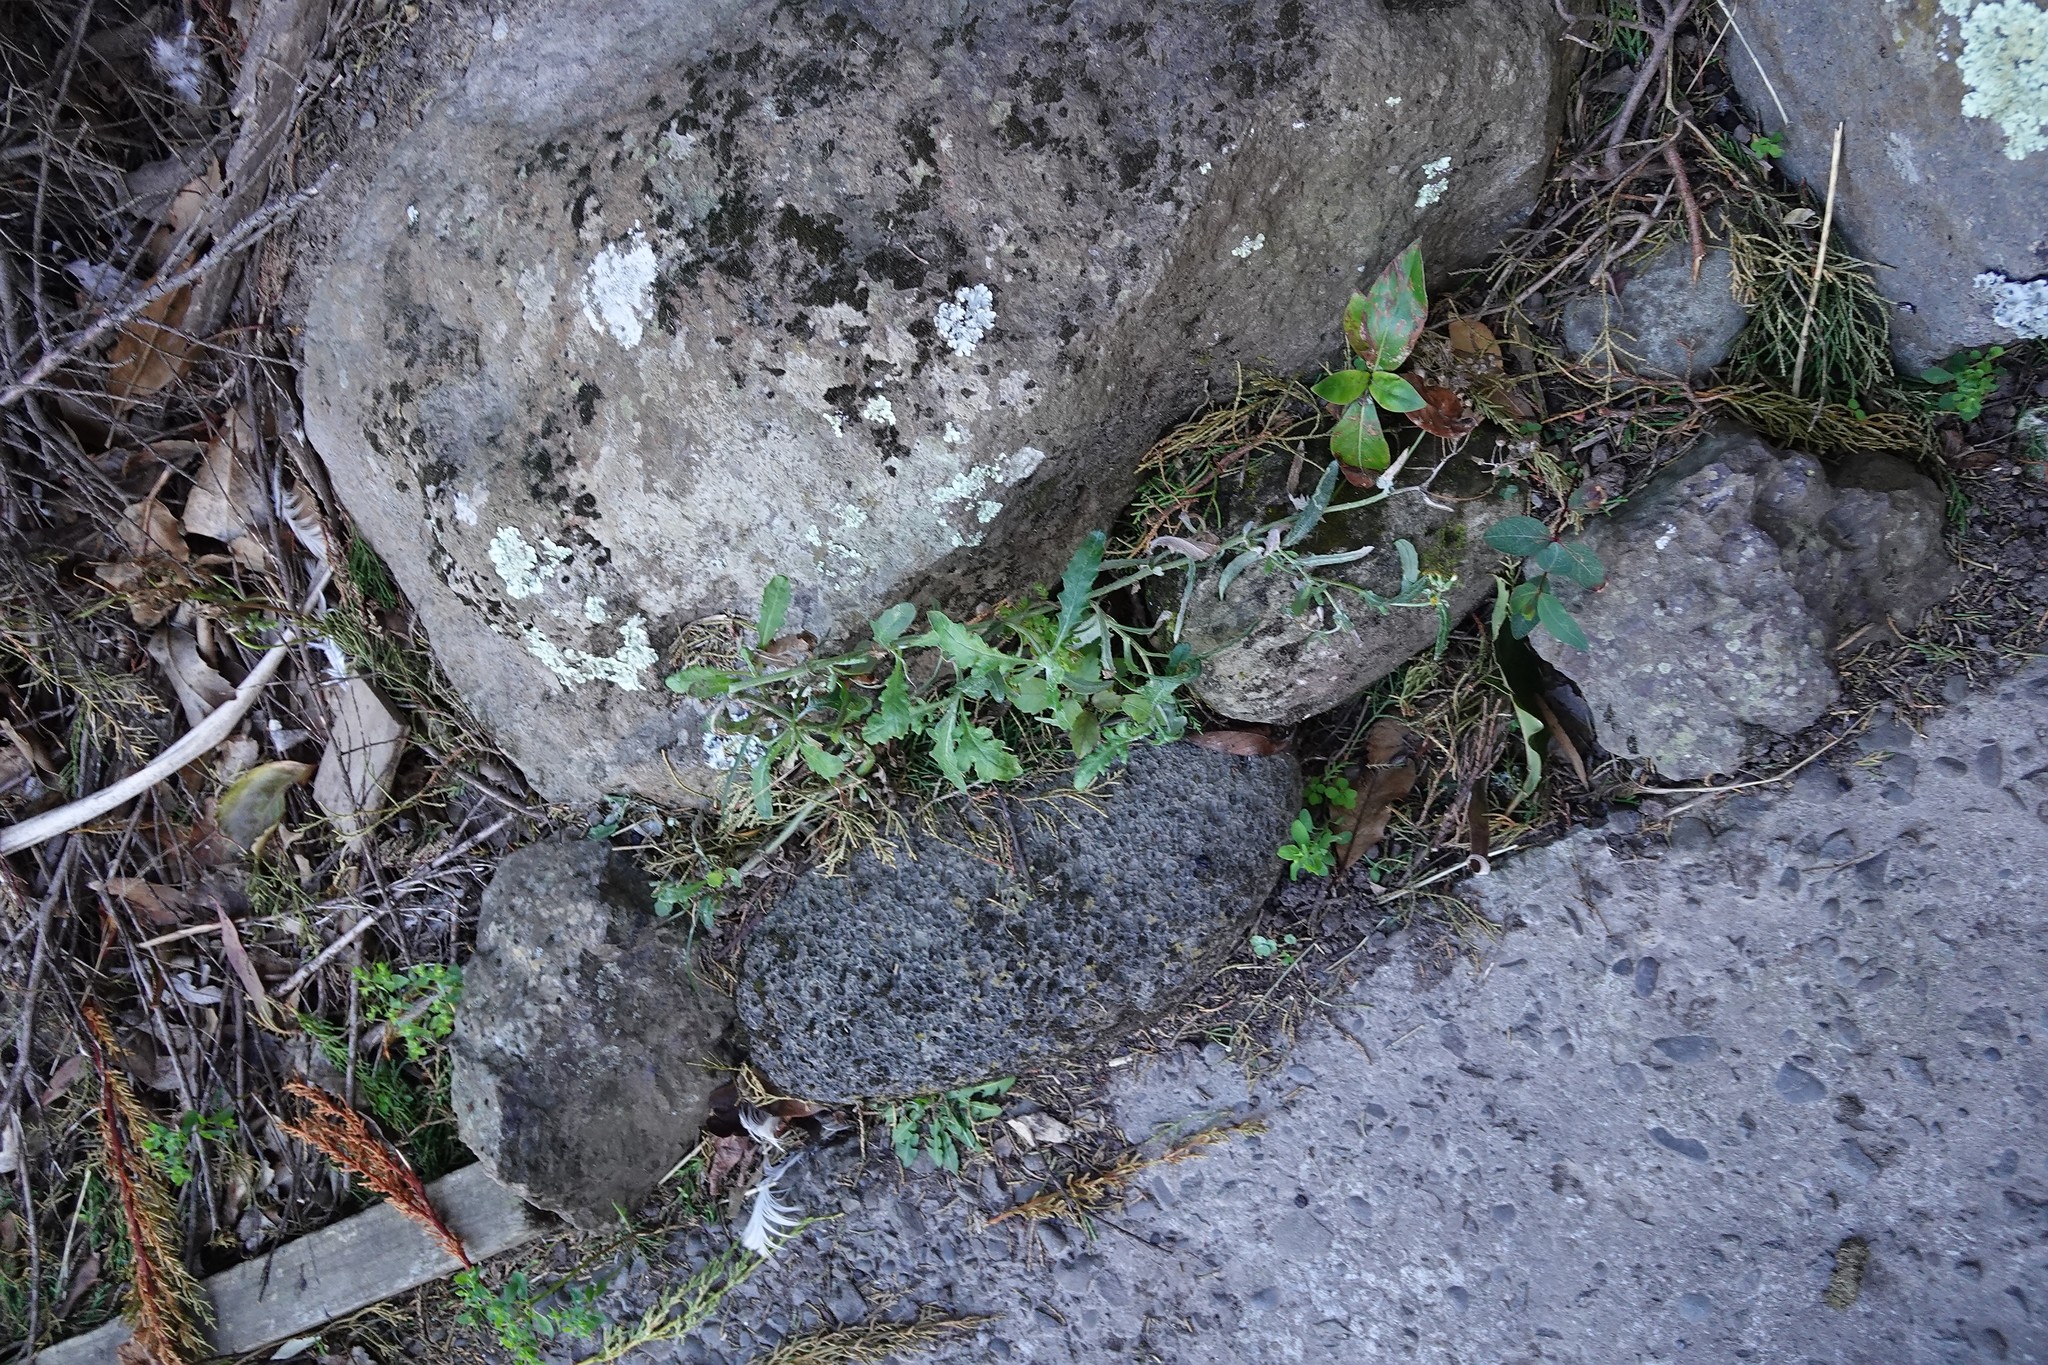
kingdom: Plantae
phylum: Tracheophyta
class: Magnoliopsida
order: Asterales
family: Asteraceae
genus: Senecio
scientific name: Senecio glomeratus
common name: Cutleaf burnweed
